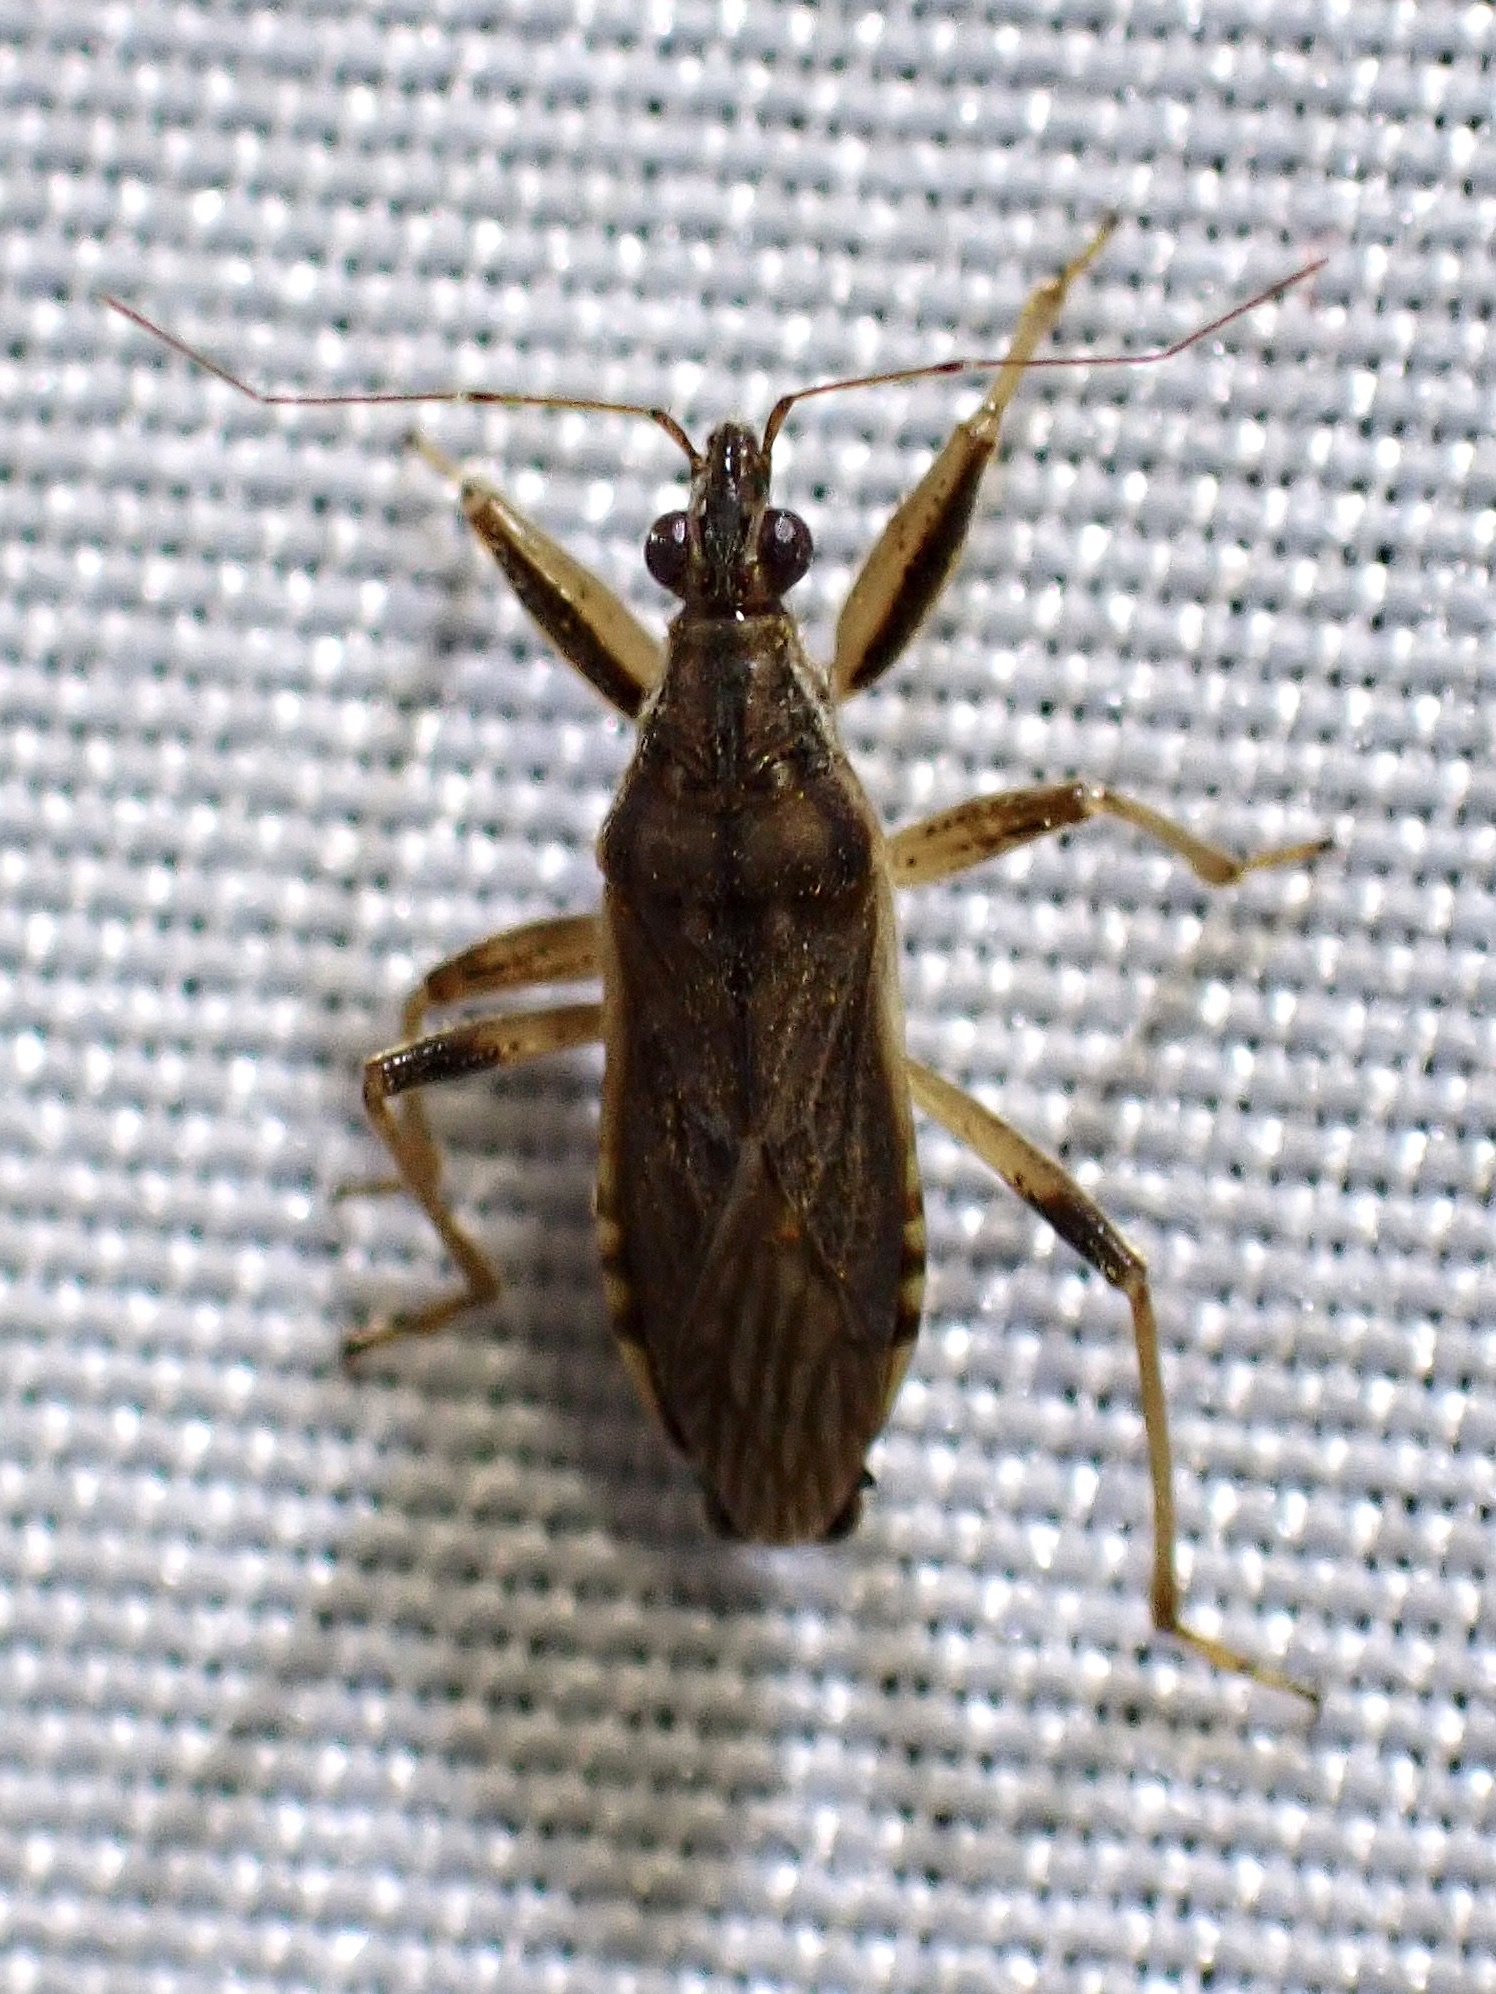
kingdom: Animalia
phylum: Arthropoda
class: Insecta
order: Hemiptera
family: Nabidae
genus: Himacerus
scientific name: Himacerus major
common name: Damsel bug
